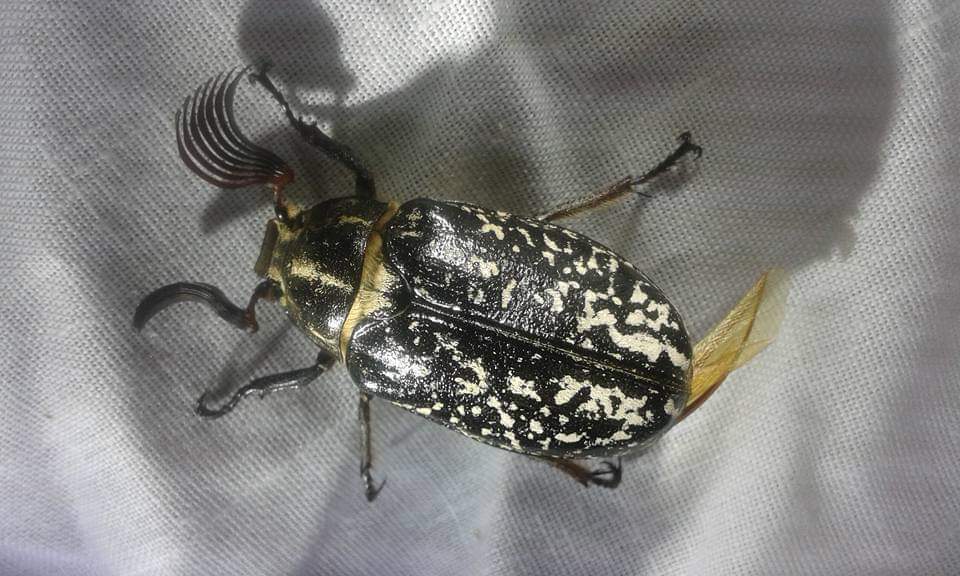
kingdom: Animalia
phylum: Arthropoda
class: Insecta
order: Coleoptera
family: Scarabaeidae
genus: Polyphylla
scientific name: Polyphylla fullo
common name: Pine chafer
